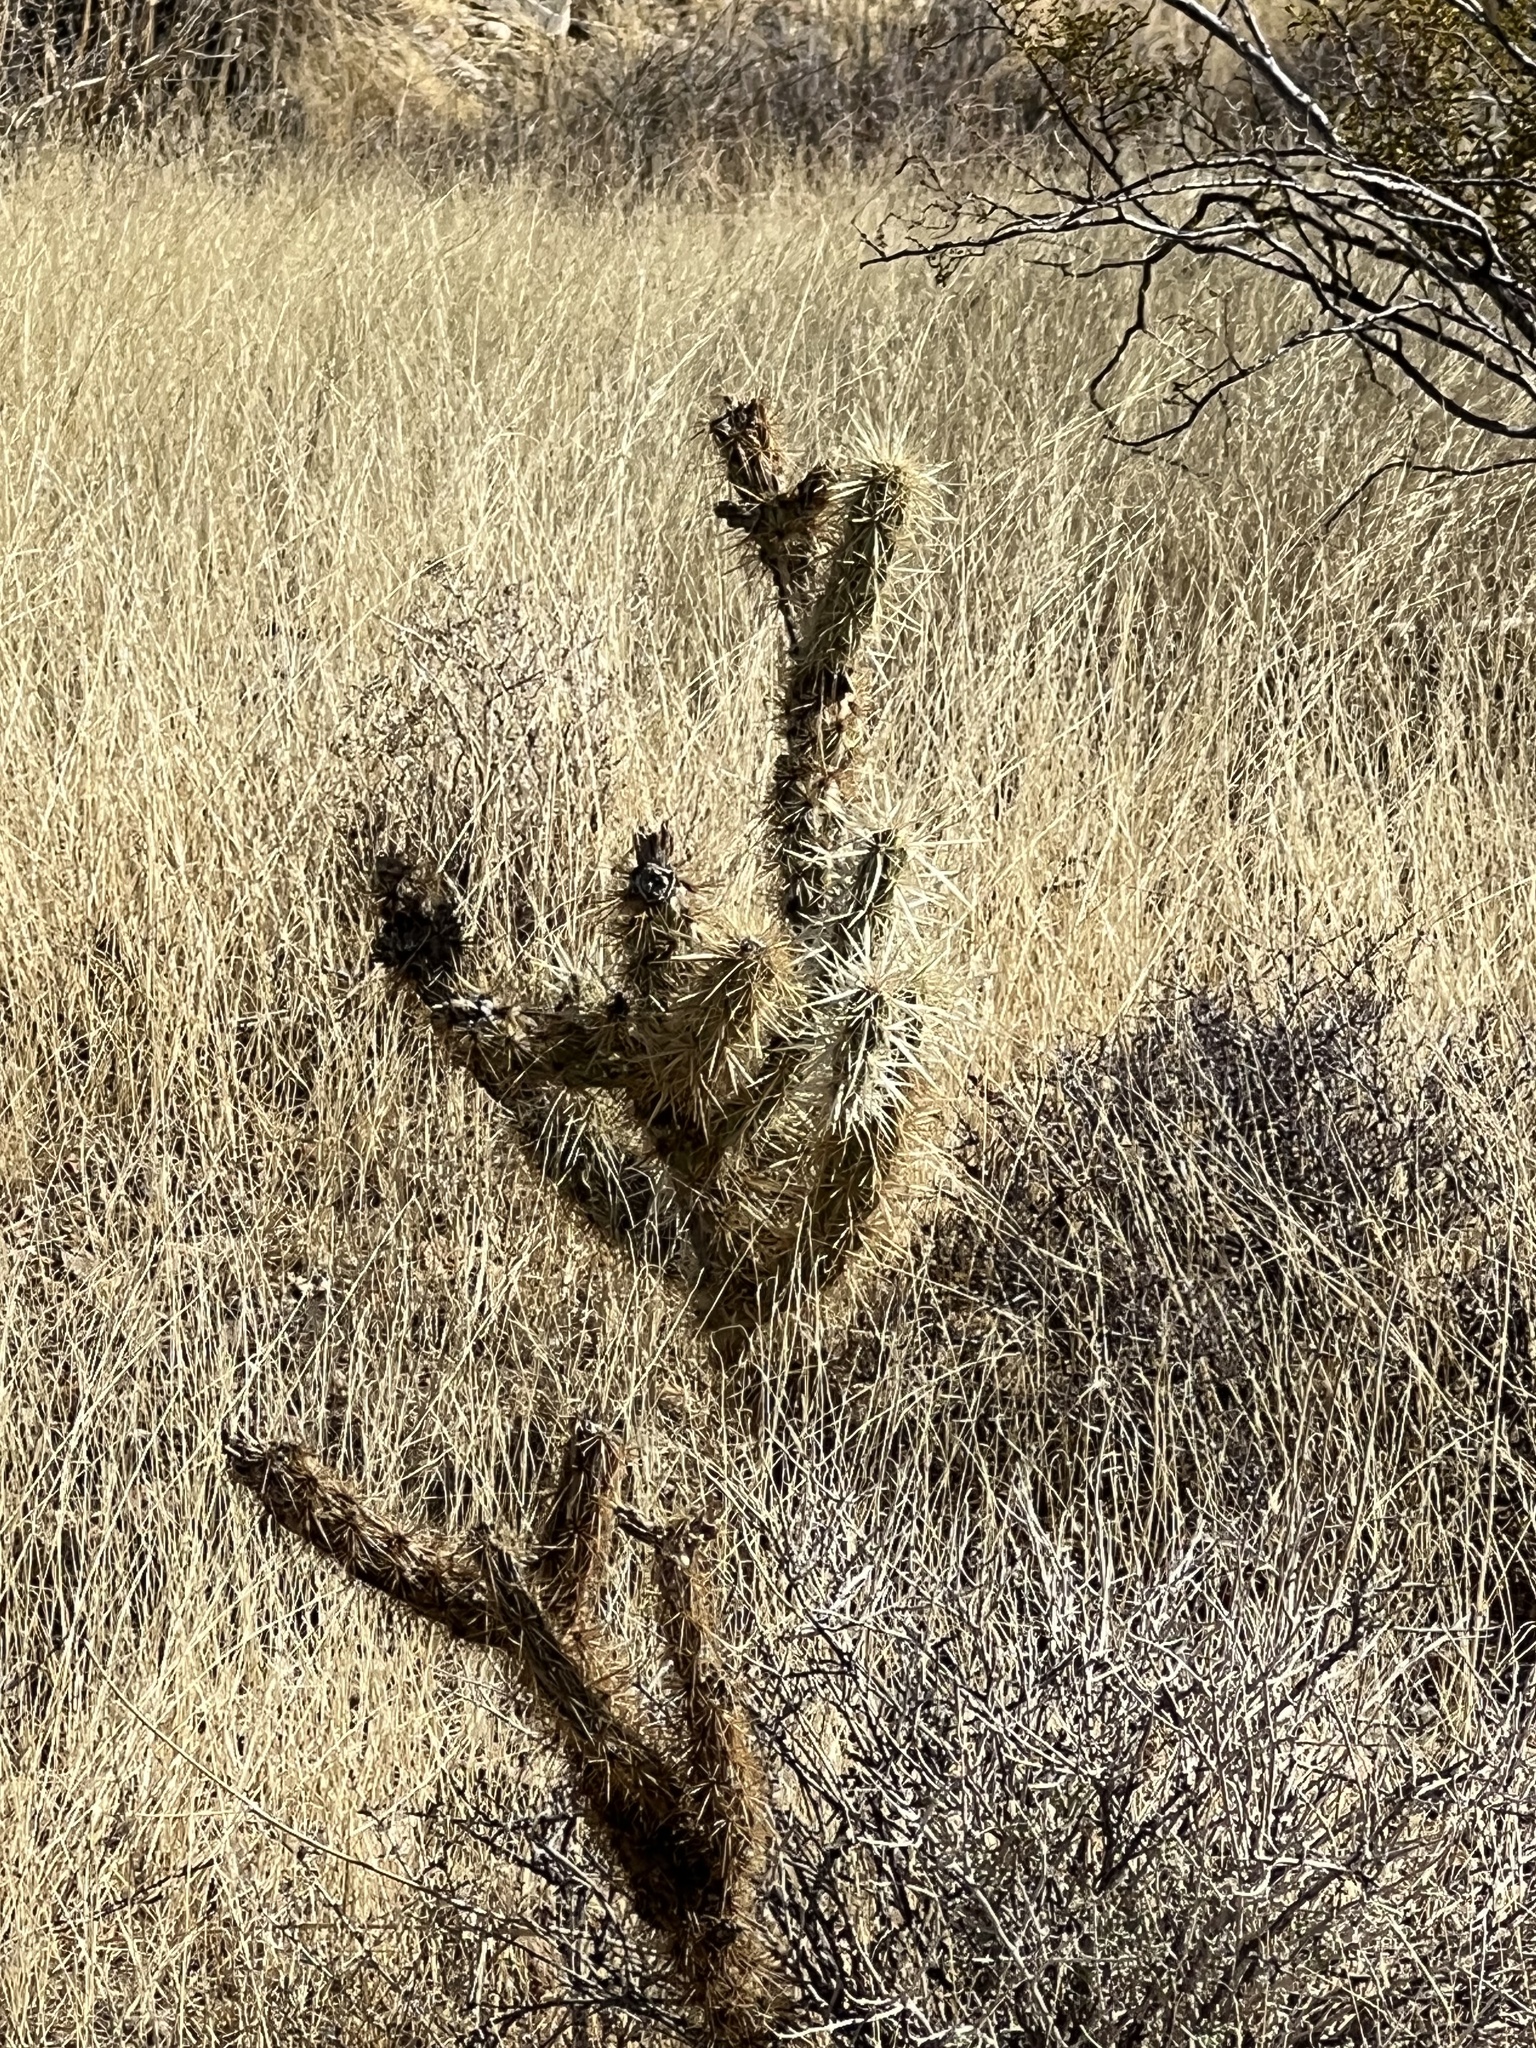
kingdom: Plantae
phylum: Tracheophyta
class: Magnoliopsida
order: Caryophyllales
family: Cactaceae
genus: Cylindropuntia
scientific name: Cylindropuntia acanthocarpa
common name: Buckhorn cholla
